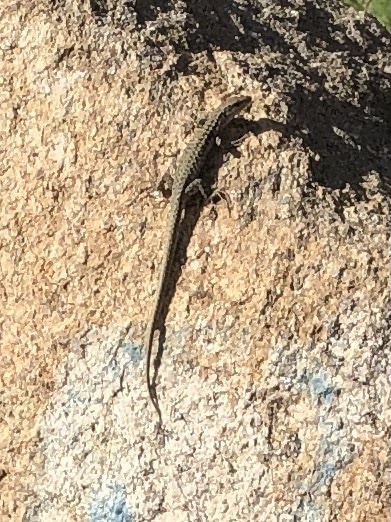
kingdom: Animalia
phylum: Chordata
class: Squamata
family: Lacertidae
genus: Podarcis
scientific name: Podarcis virescens
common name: Geniez’s wall lizard
